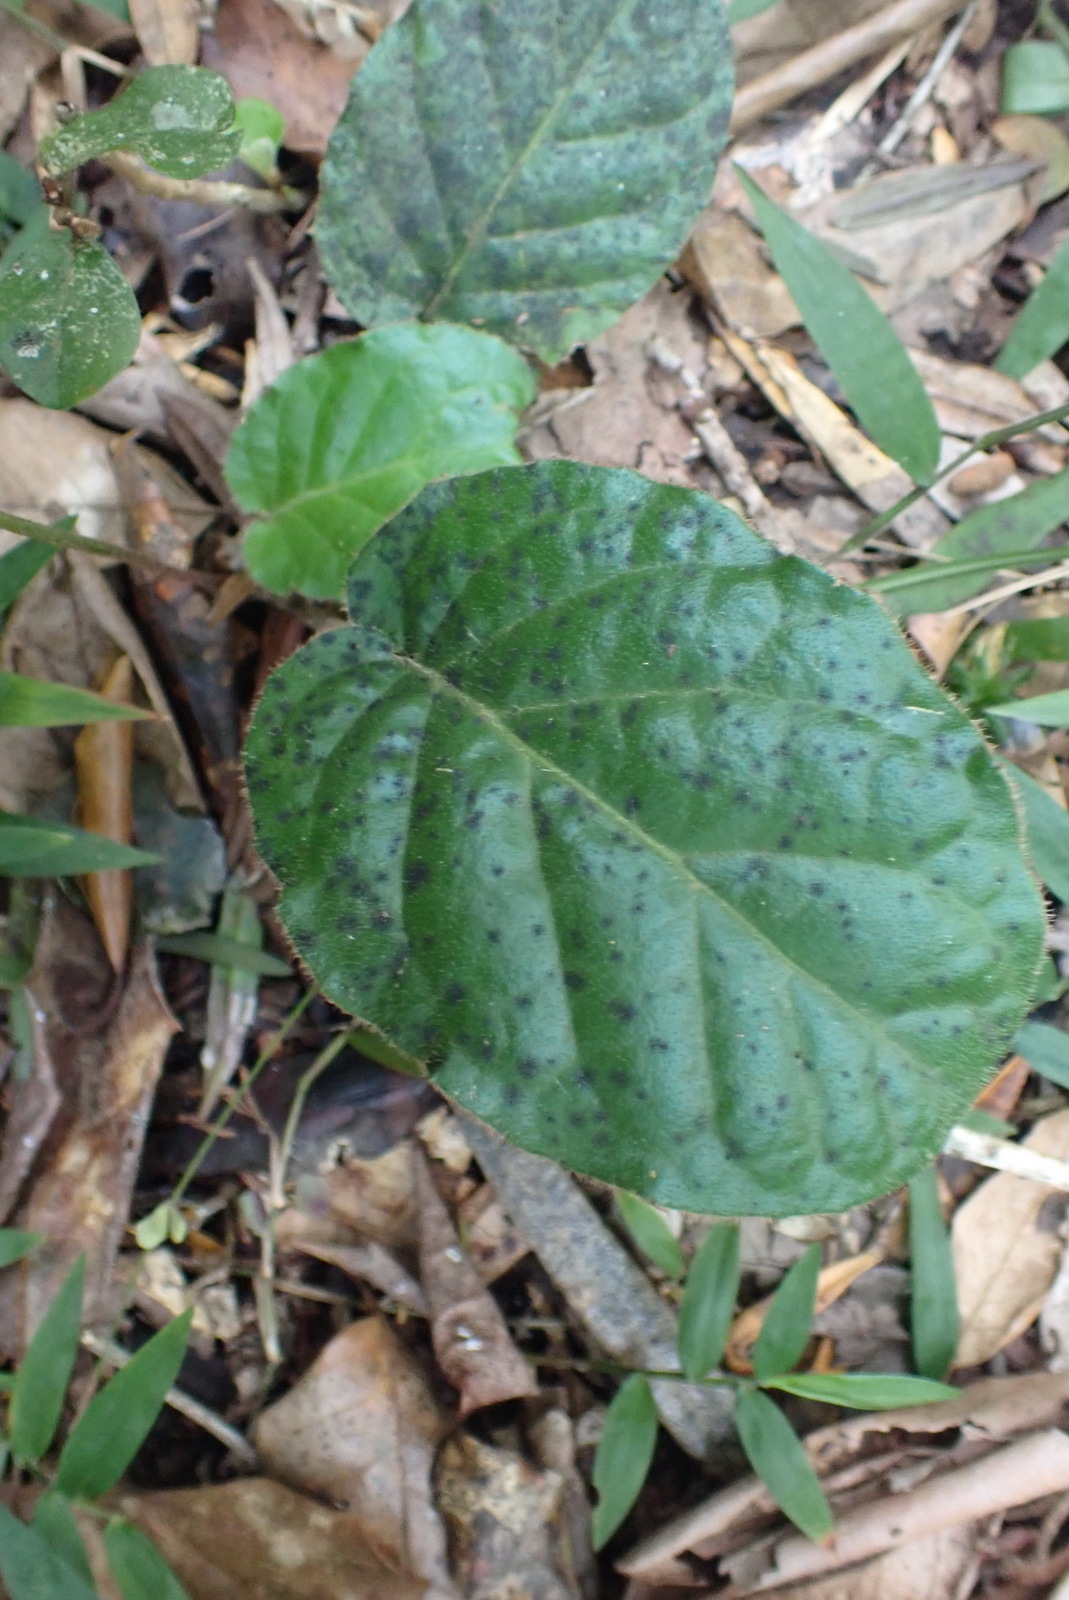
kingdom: Plantae
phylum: Tracheophyta
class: Magnoliopsida
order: Asterales
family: Asteraceae
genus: Piloselloides
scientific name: Piloselloides cordata
